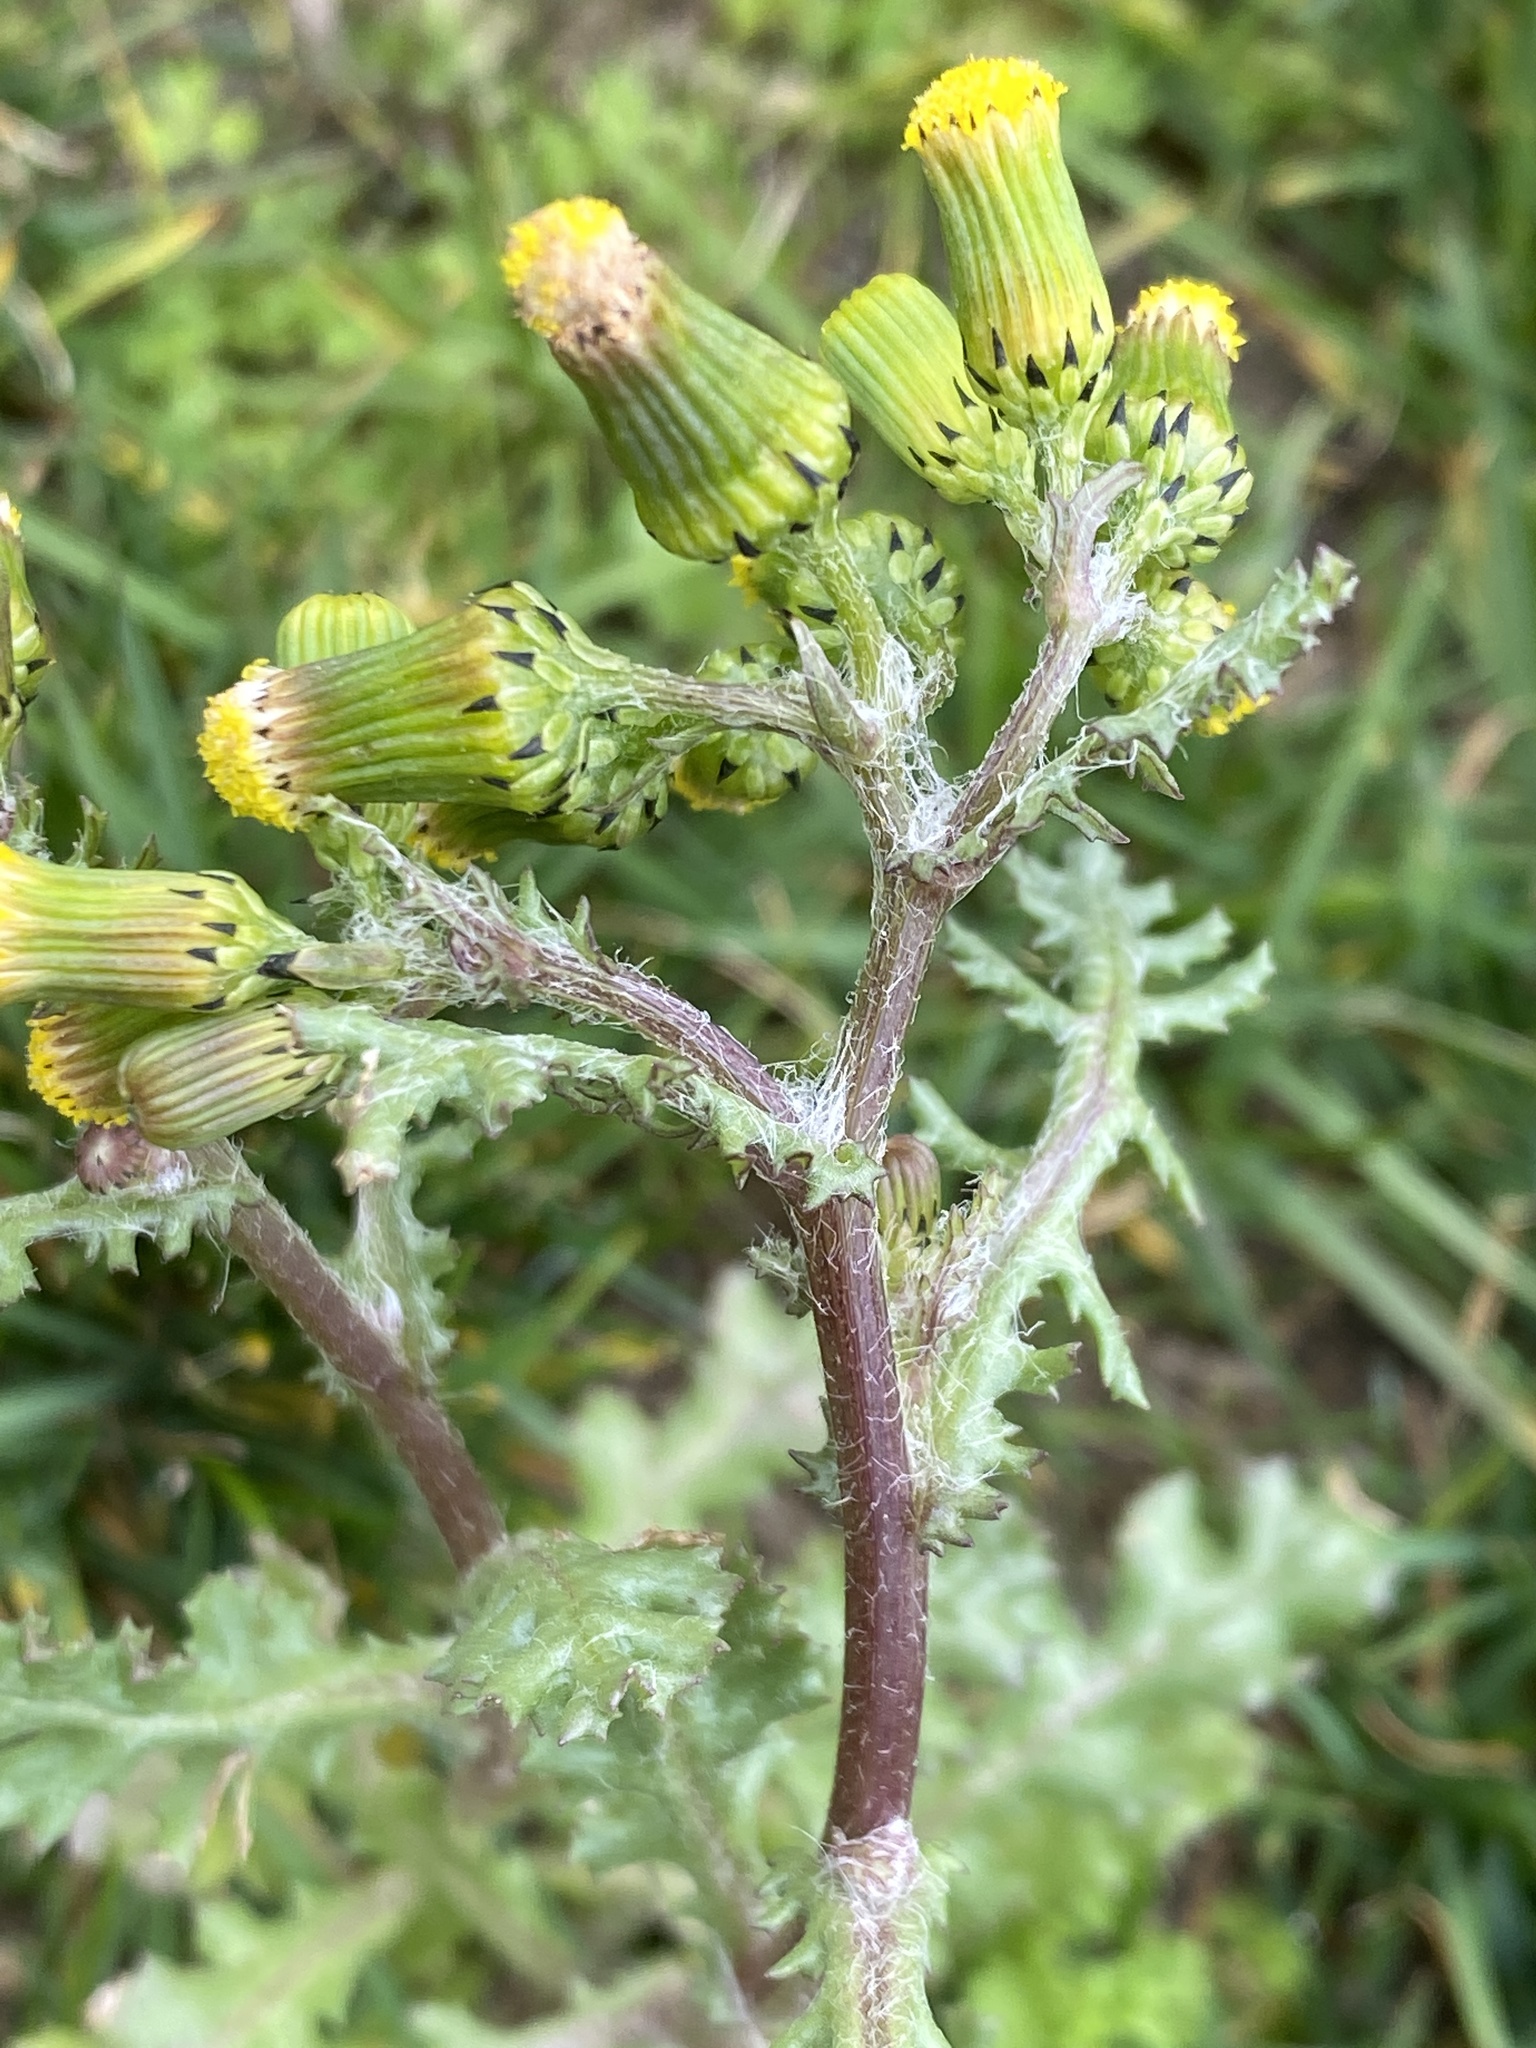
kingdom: Plantae
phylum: Tracheophyta
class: Magnoliopsida
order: Asterales
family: Asteraceae
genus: Senecio
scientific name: Senecio vulgaris
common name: Old-man-in-the-spring
